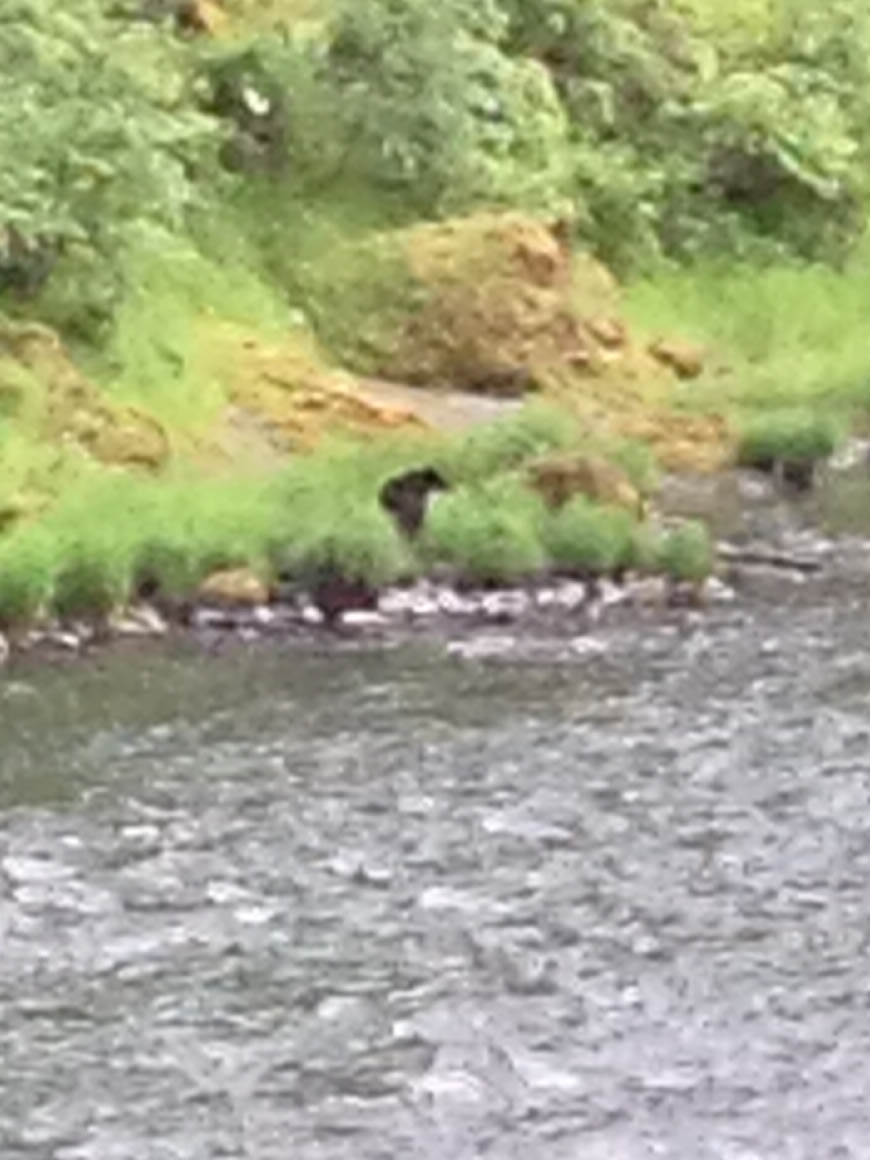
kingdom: Animalia
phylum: Chordata
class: Mammalia
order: Carnivora
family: Ursidae
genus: Ursus
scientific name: Ursus americanus
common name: American black bear
